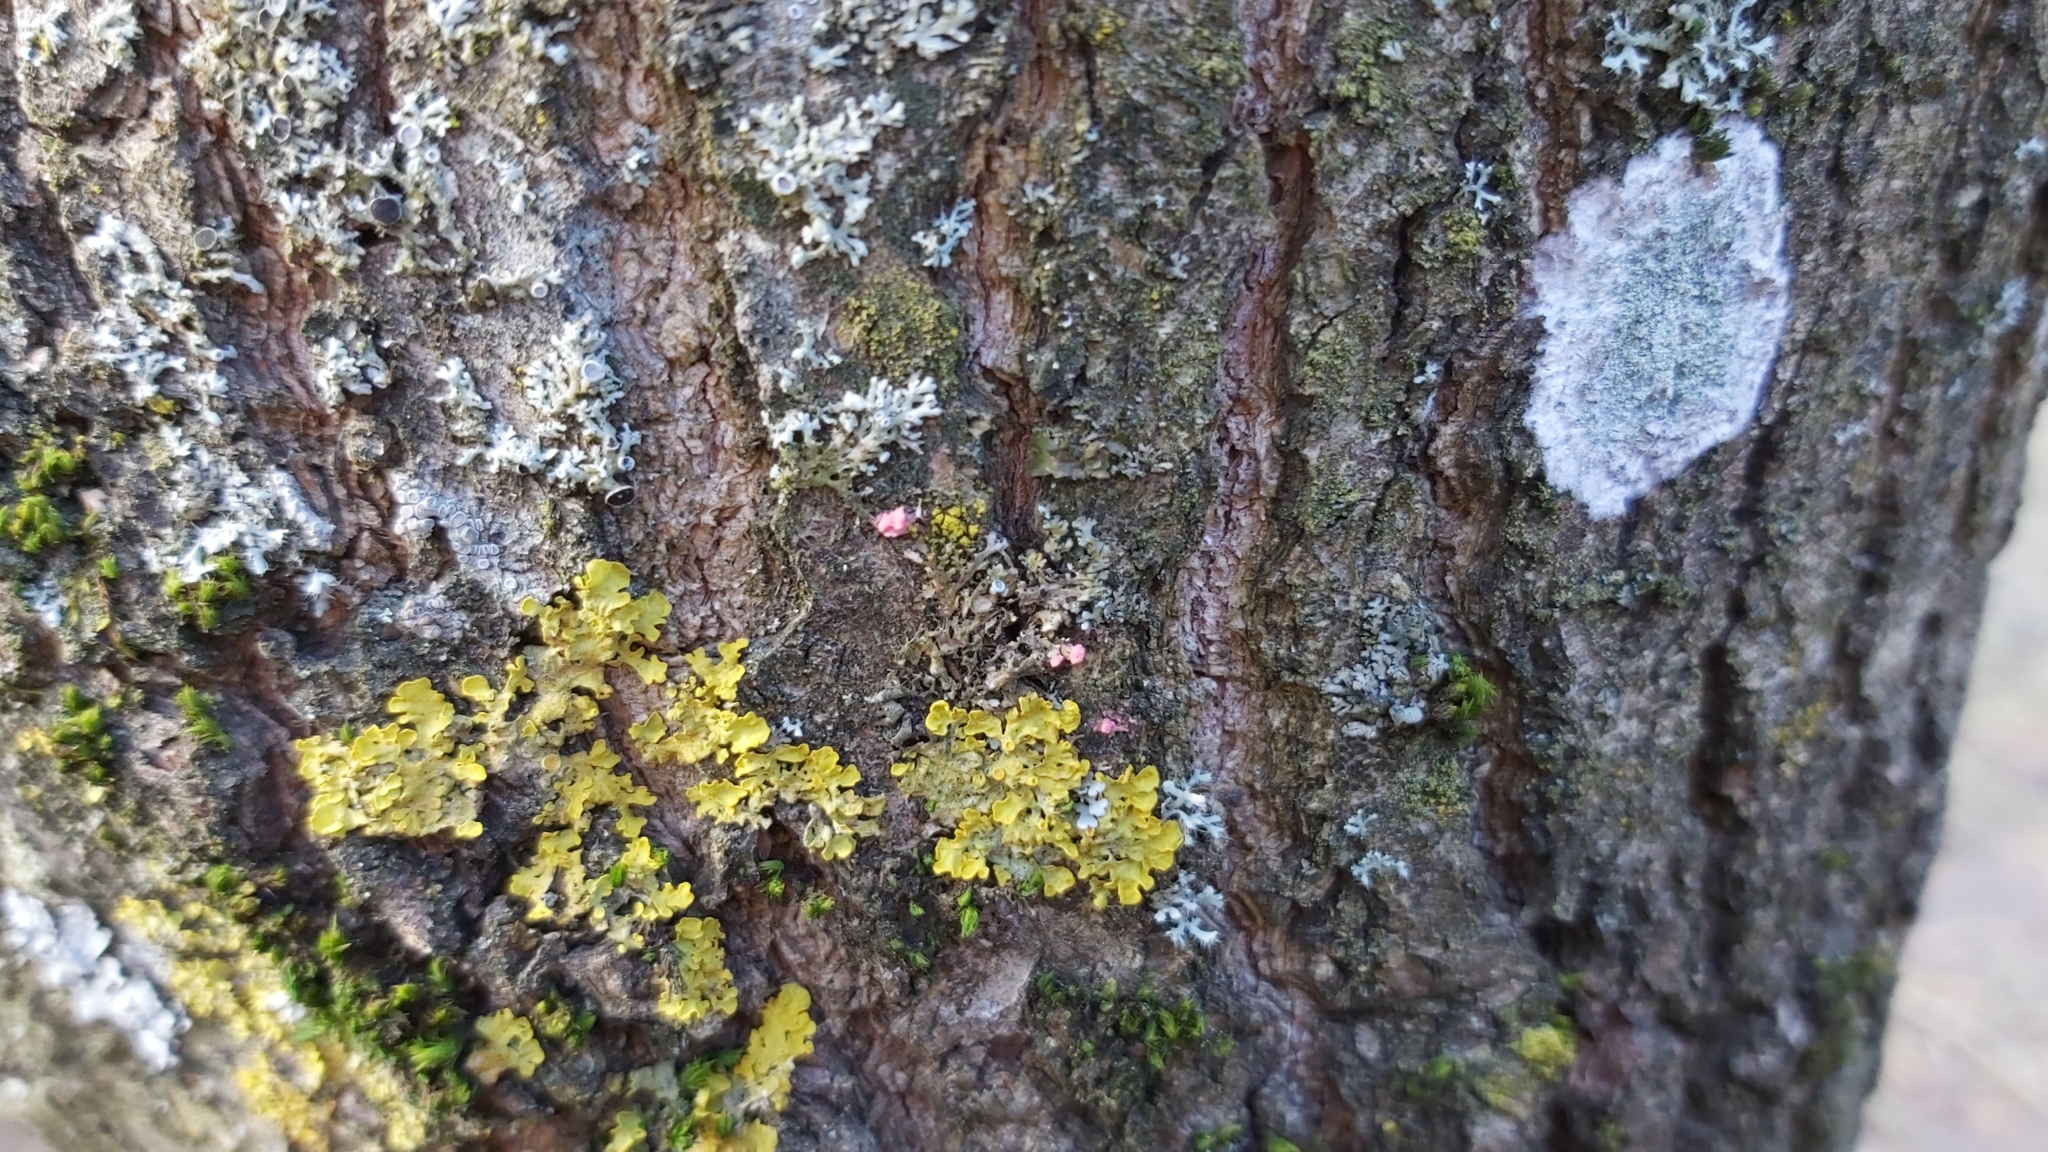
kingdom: Fungi
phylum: Ascomycota
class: Sordariomycetes
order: Hypocreales
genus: Illosporiopsis
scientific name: Illosporiopsis christiansenii
